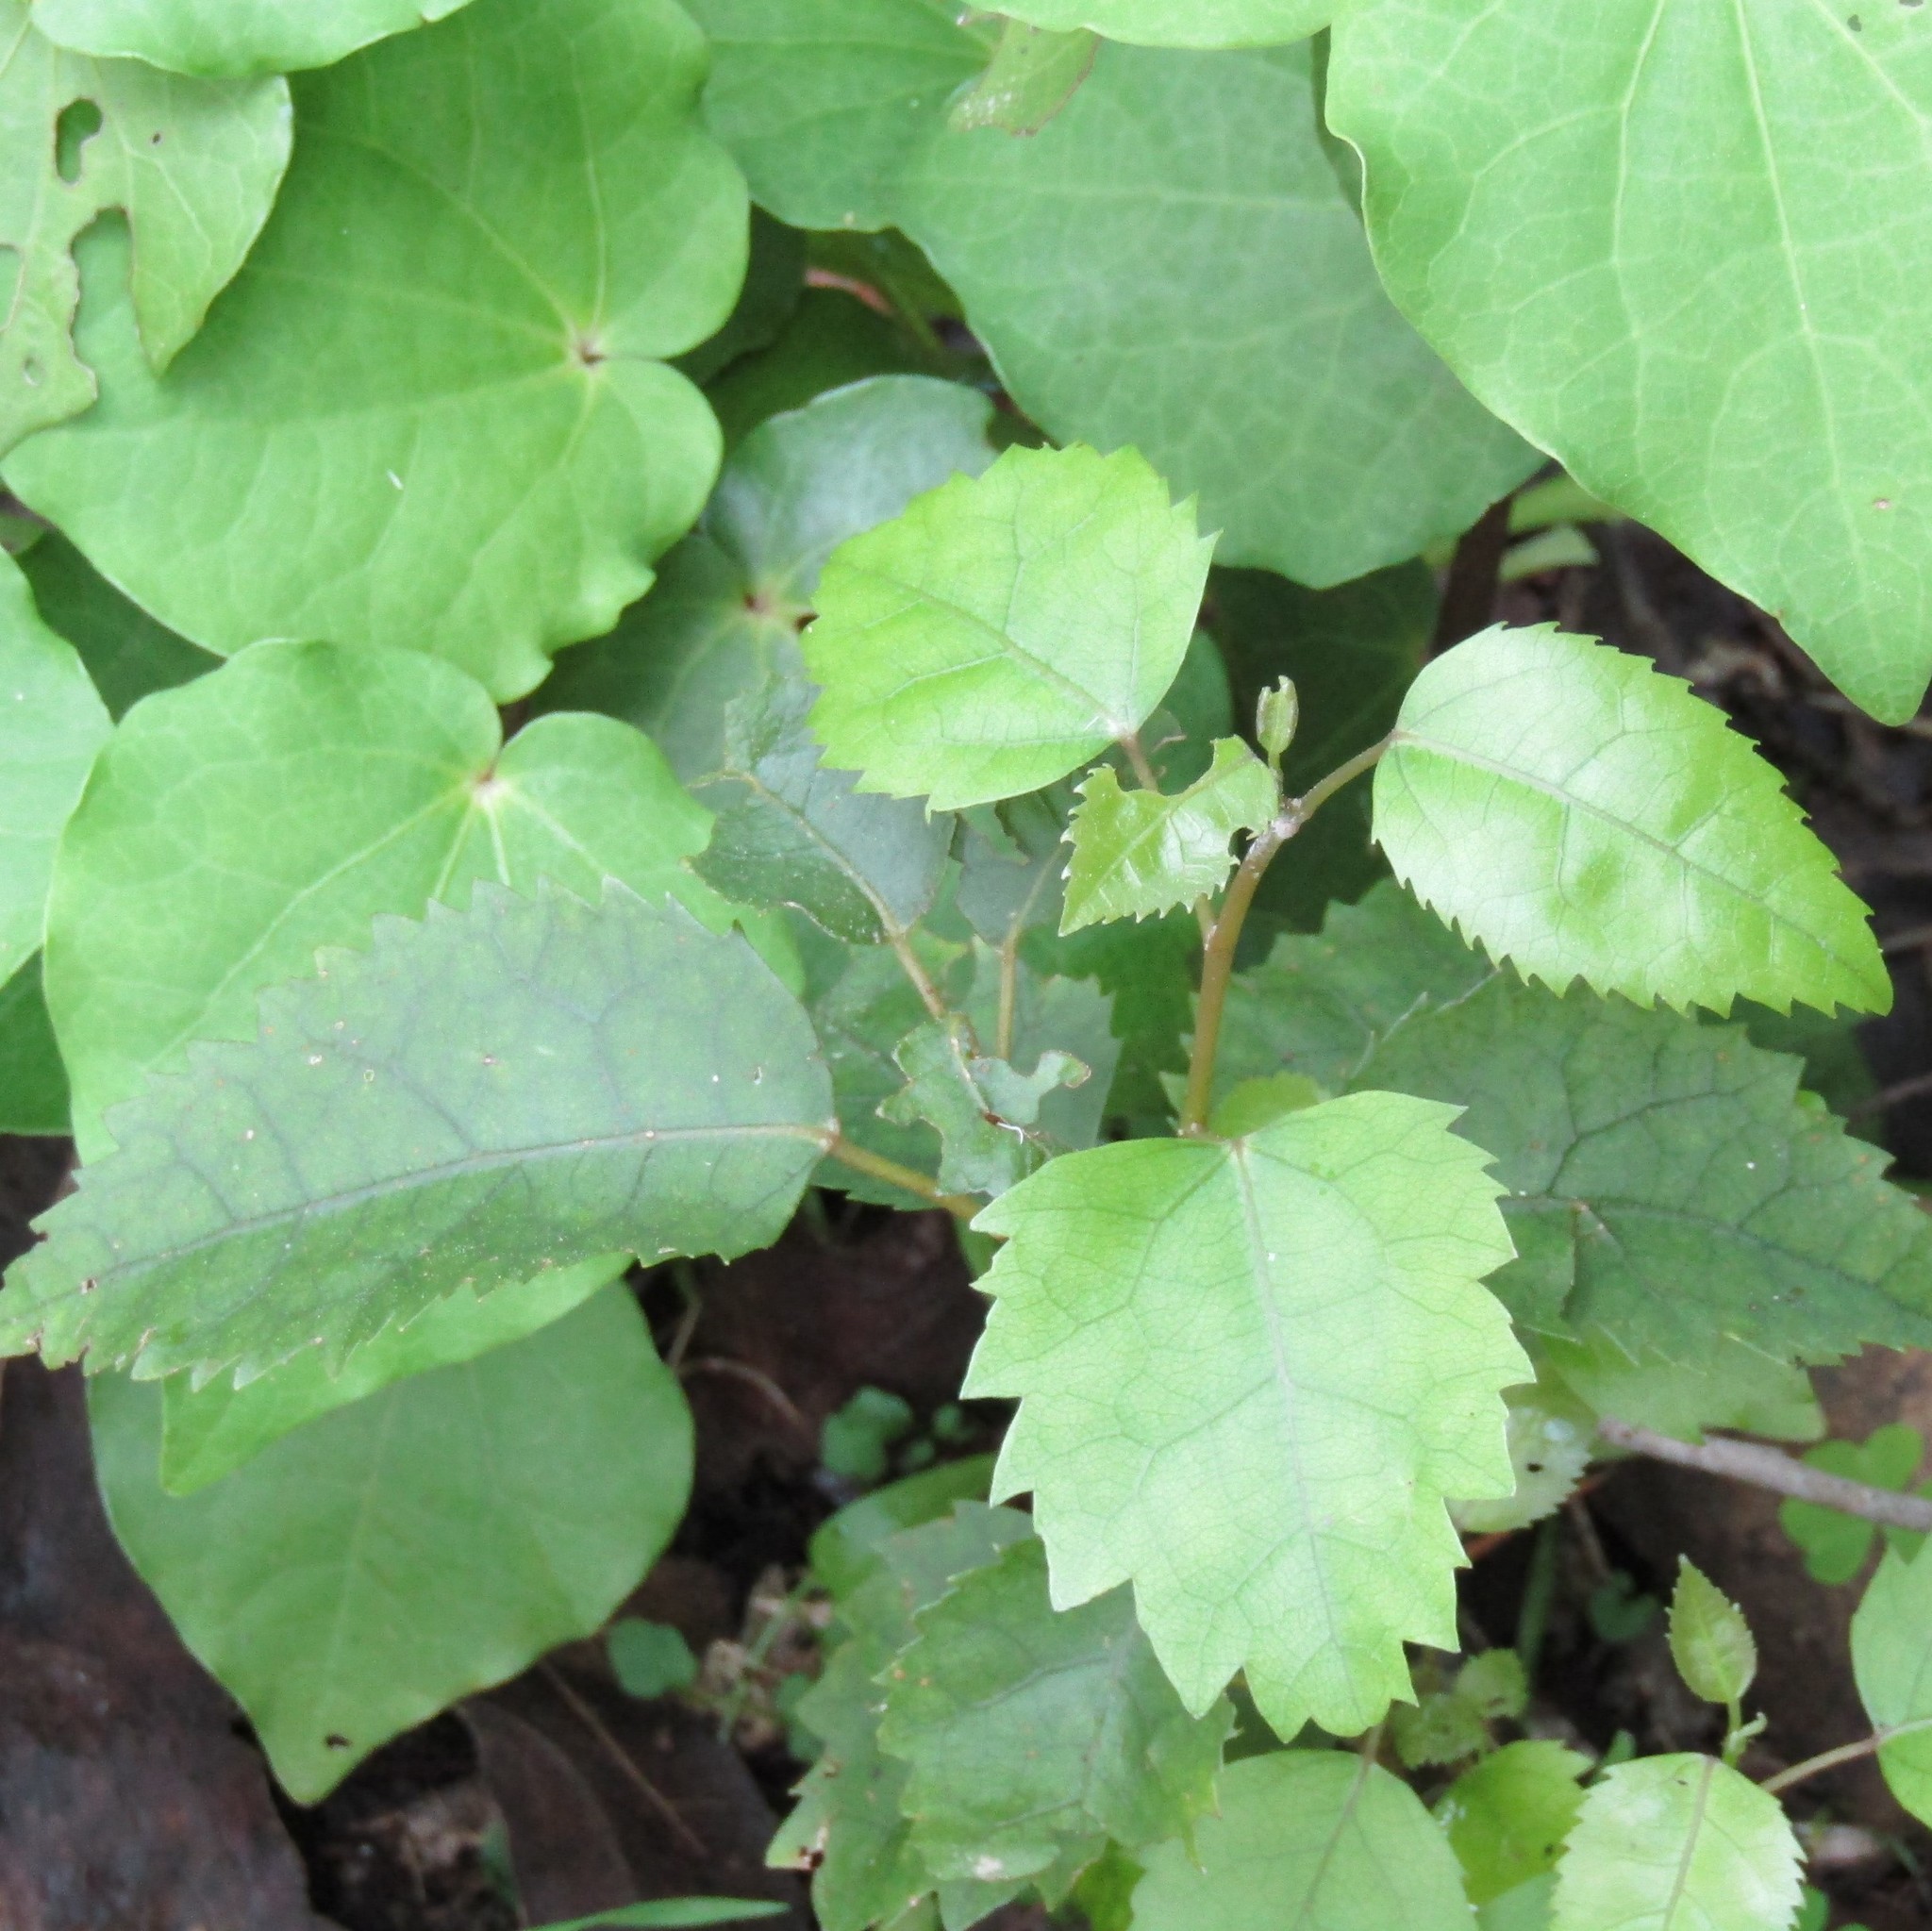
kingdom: Plantae
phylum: Tracheophyta
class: Magnoliopsida
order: Malvales
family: Malvaceae
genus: Hoheria
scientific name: Hoheria populnea
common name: Lacebark
